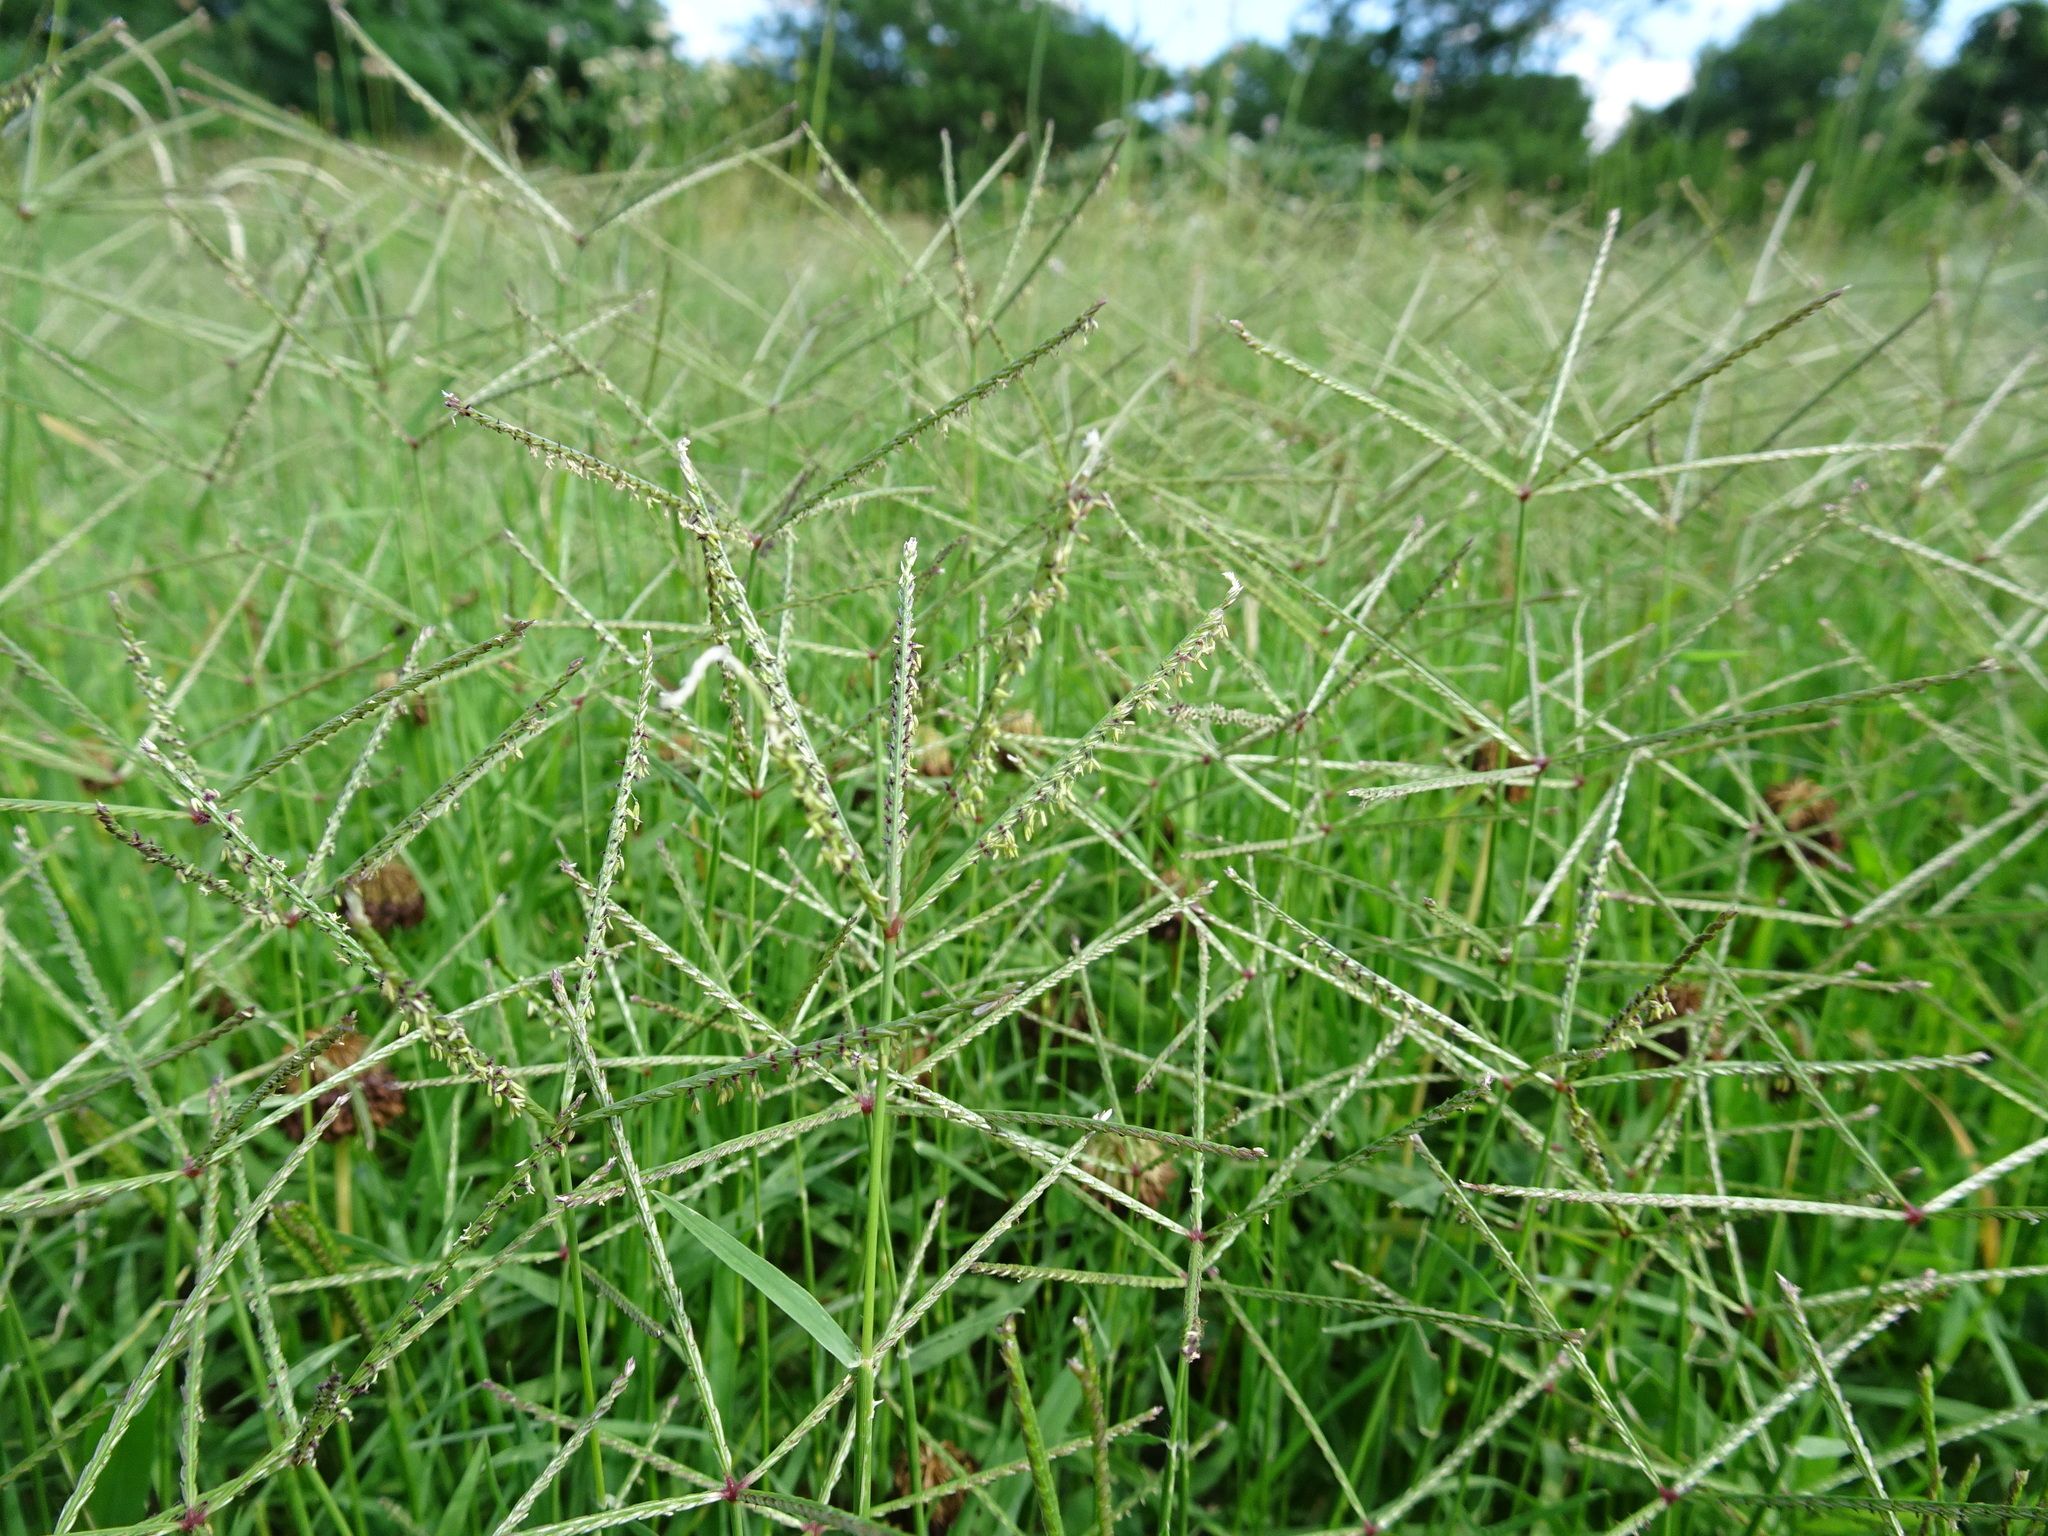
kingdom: Plantae
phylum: Tracheophyta
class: Liliopsida
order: Poales
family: Poaceae
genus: Cynodon
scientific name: Cynodon dactylon
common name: Bermuda grass
